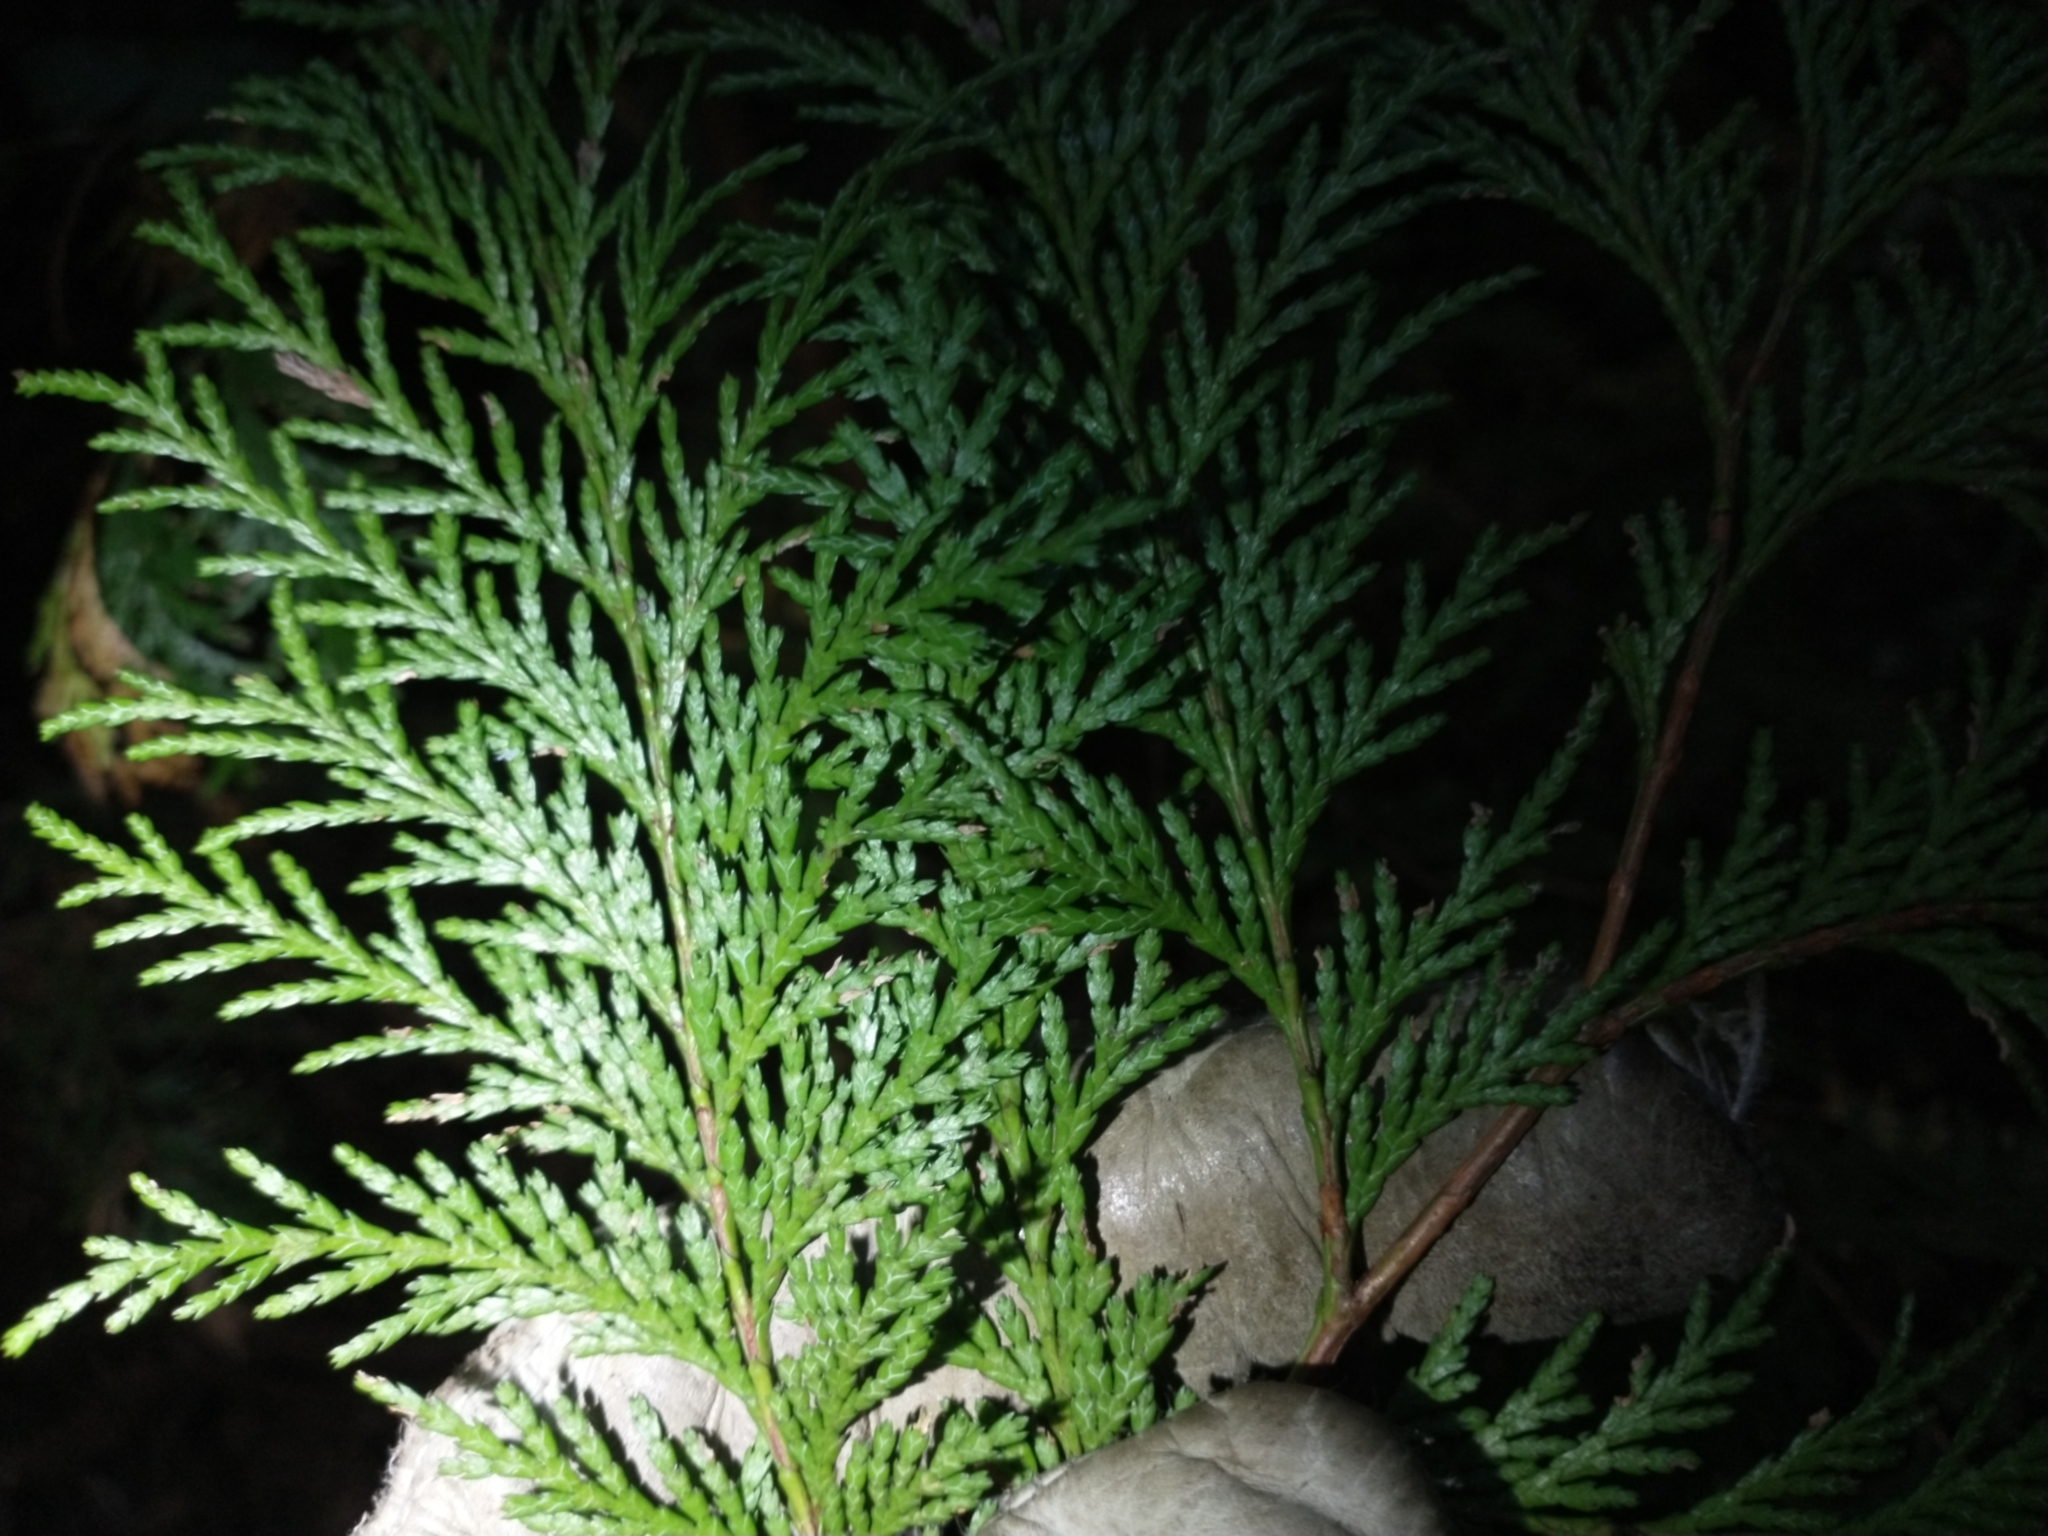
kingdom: Plantae
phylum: Tracheophyta
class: Pinopsida
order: Pinales
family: Cupressaceae
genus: Chamaecyparis
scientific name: Chamaecyparis lawsoniana
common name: Lawson's cypress
